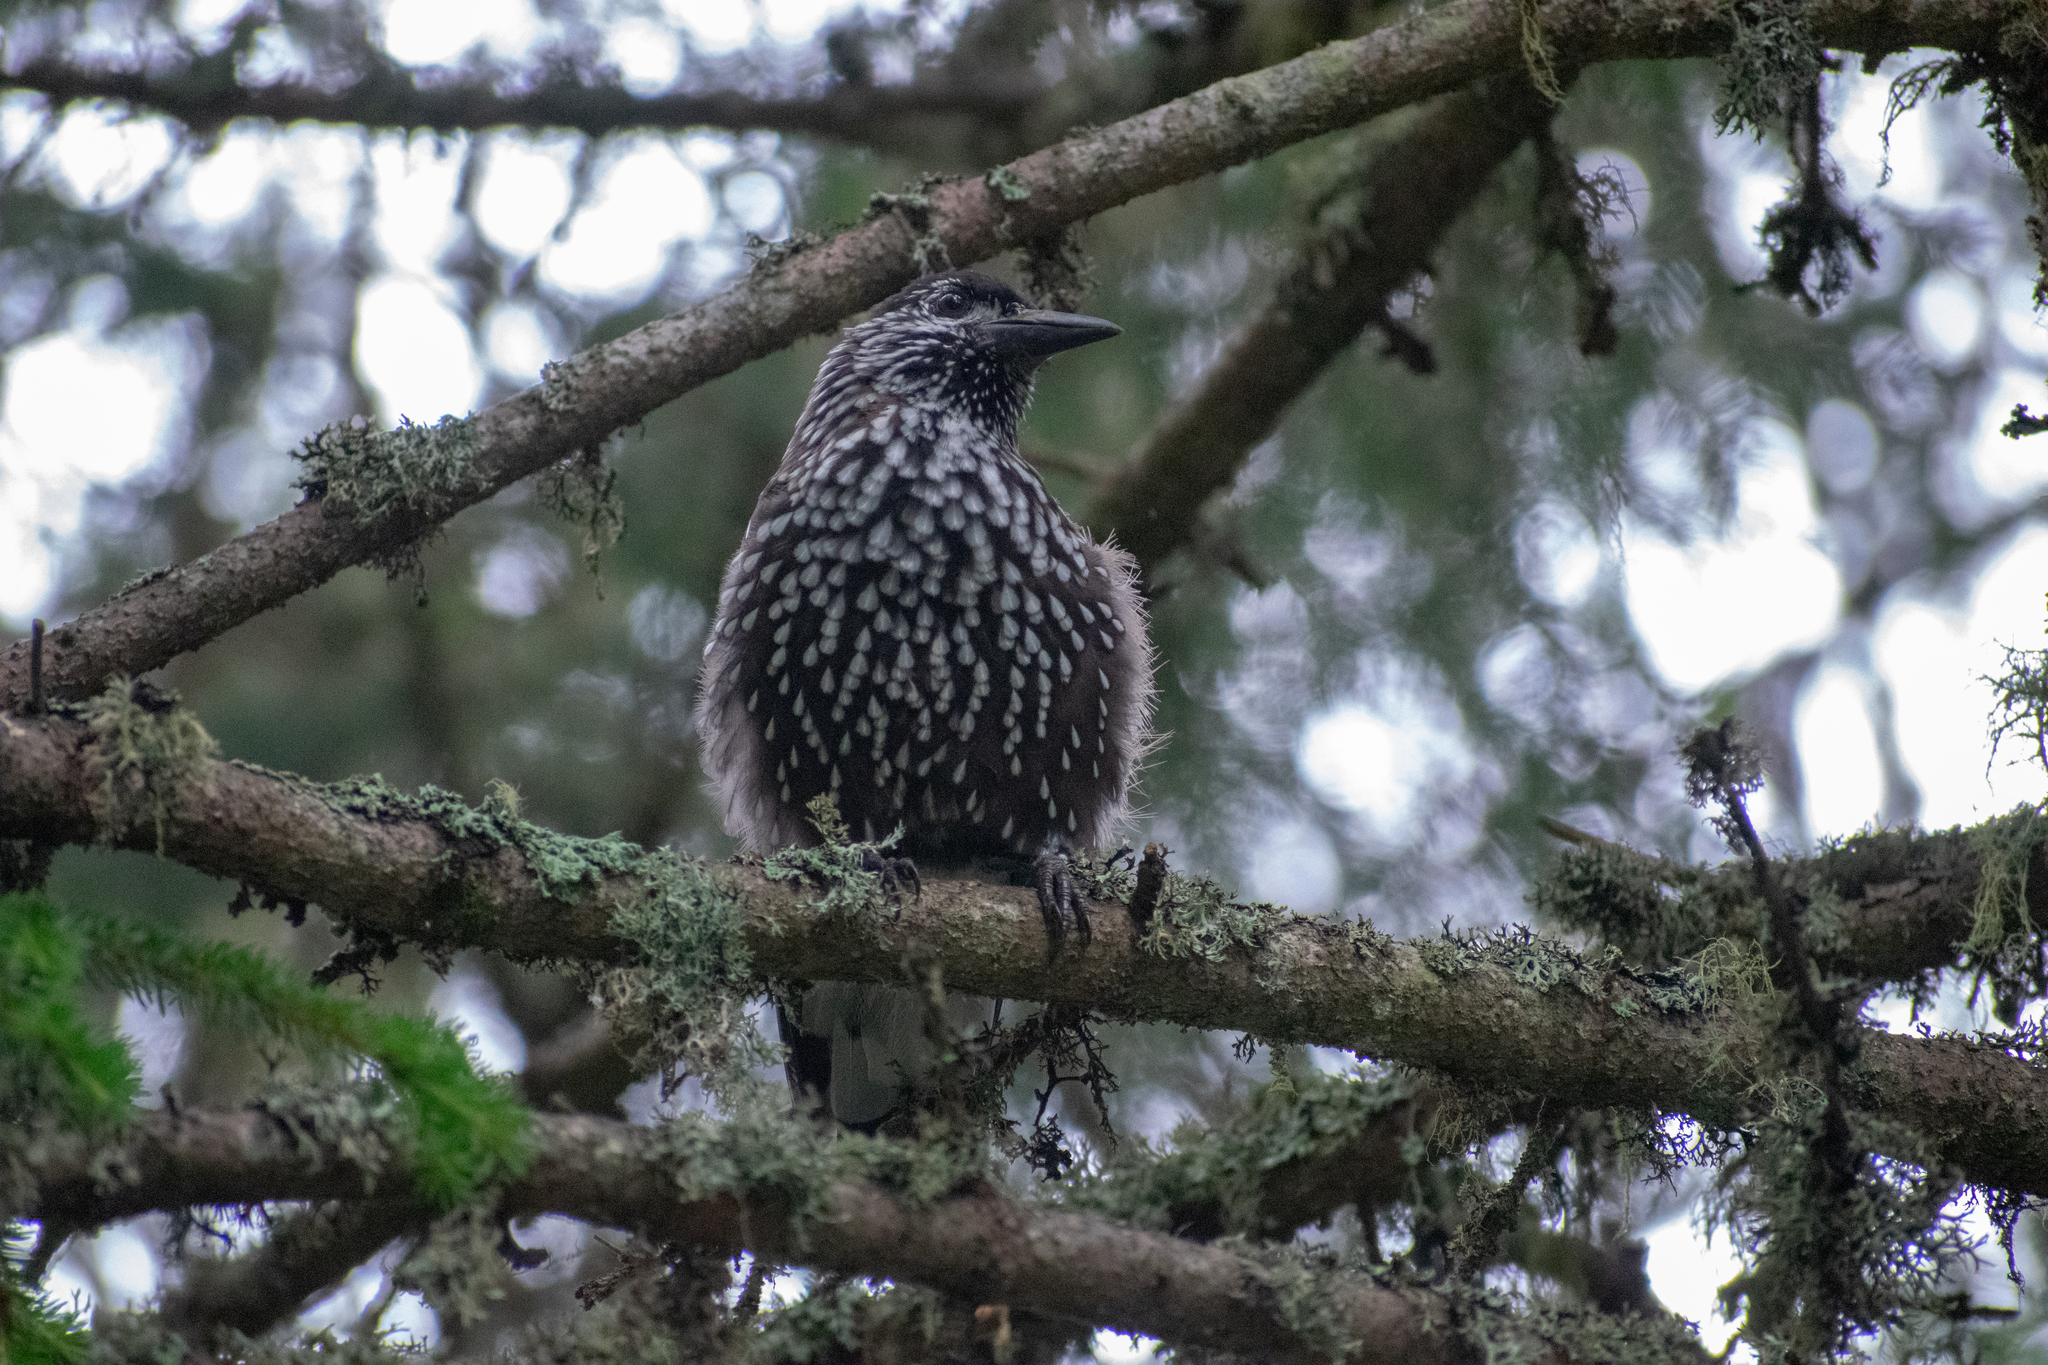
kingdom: Animalia
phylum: Chordata
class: Aves
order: Passeriformes
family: Corvidae
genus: Nucifraga
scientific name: Nucifraga caryocatactes
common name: Spotted nutcracker
